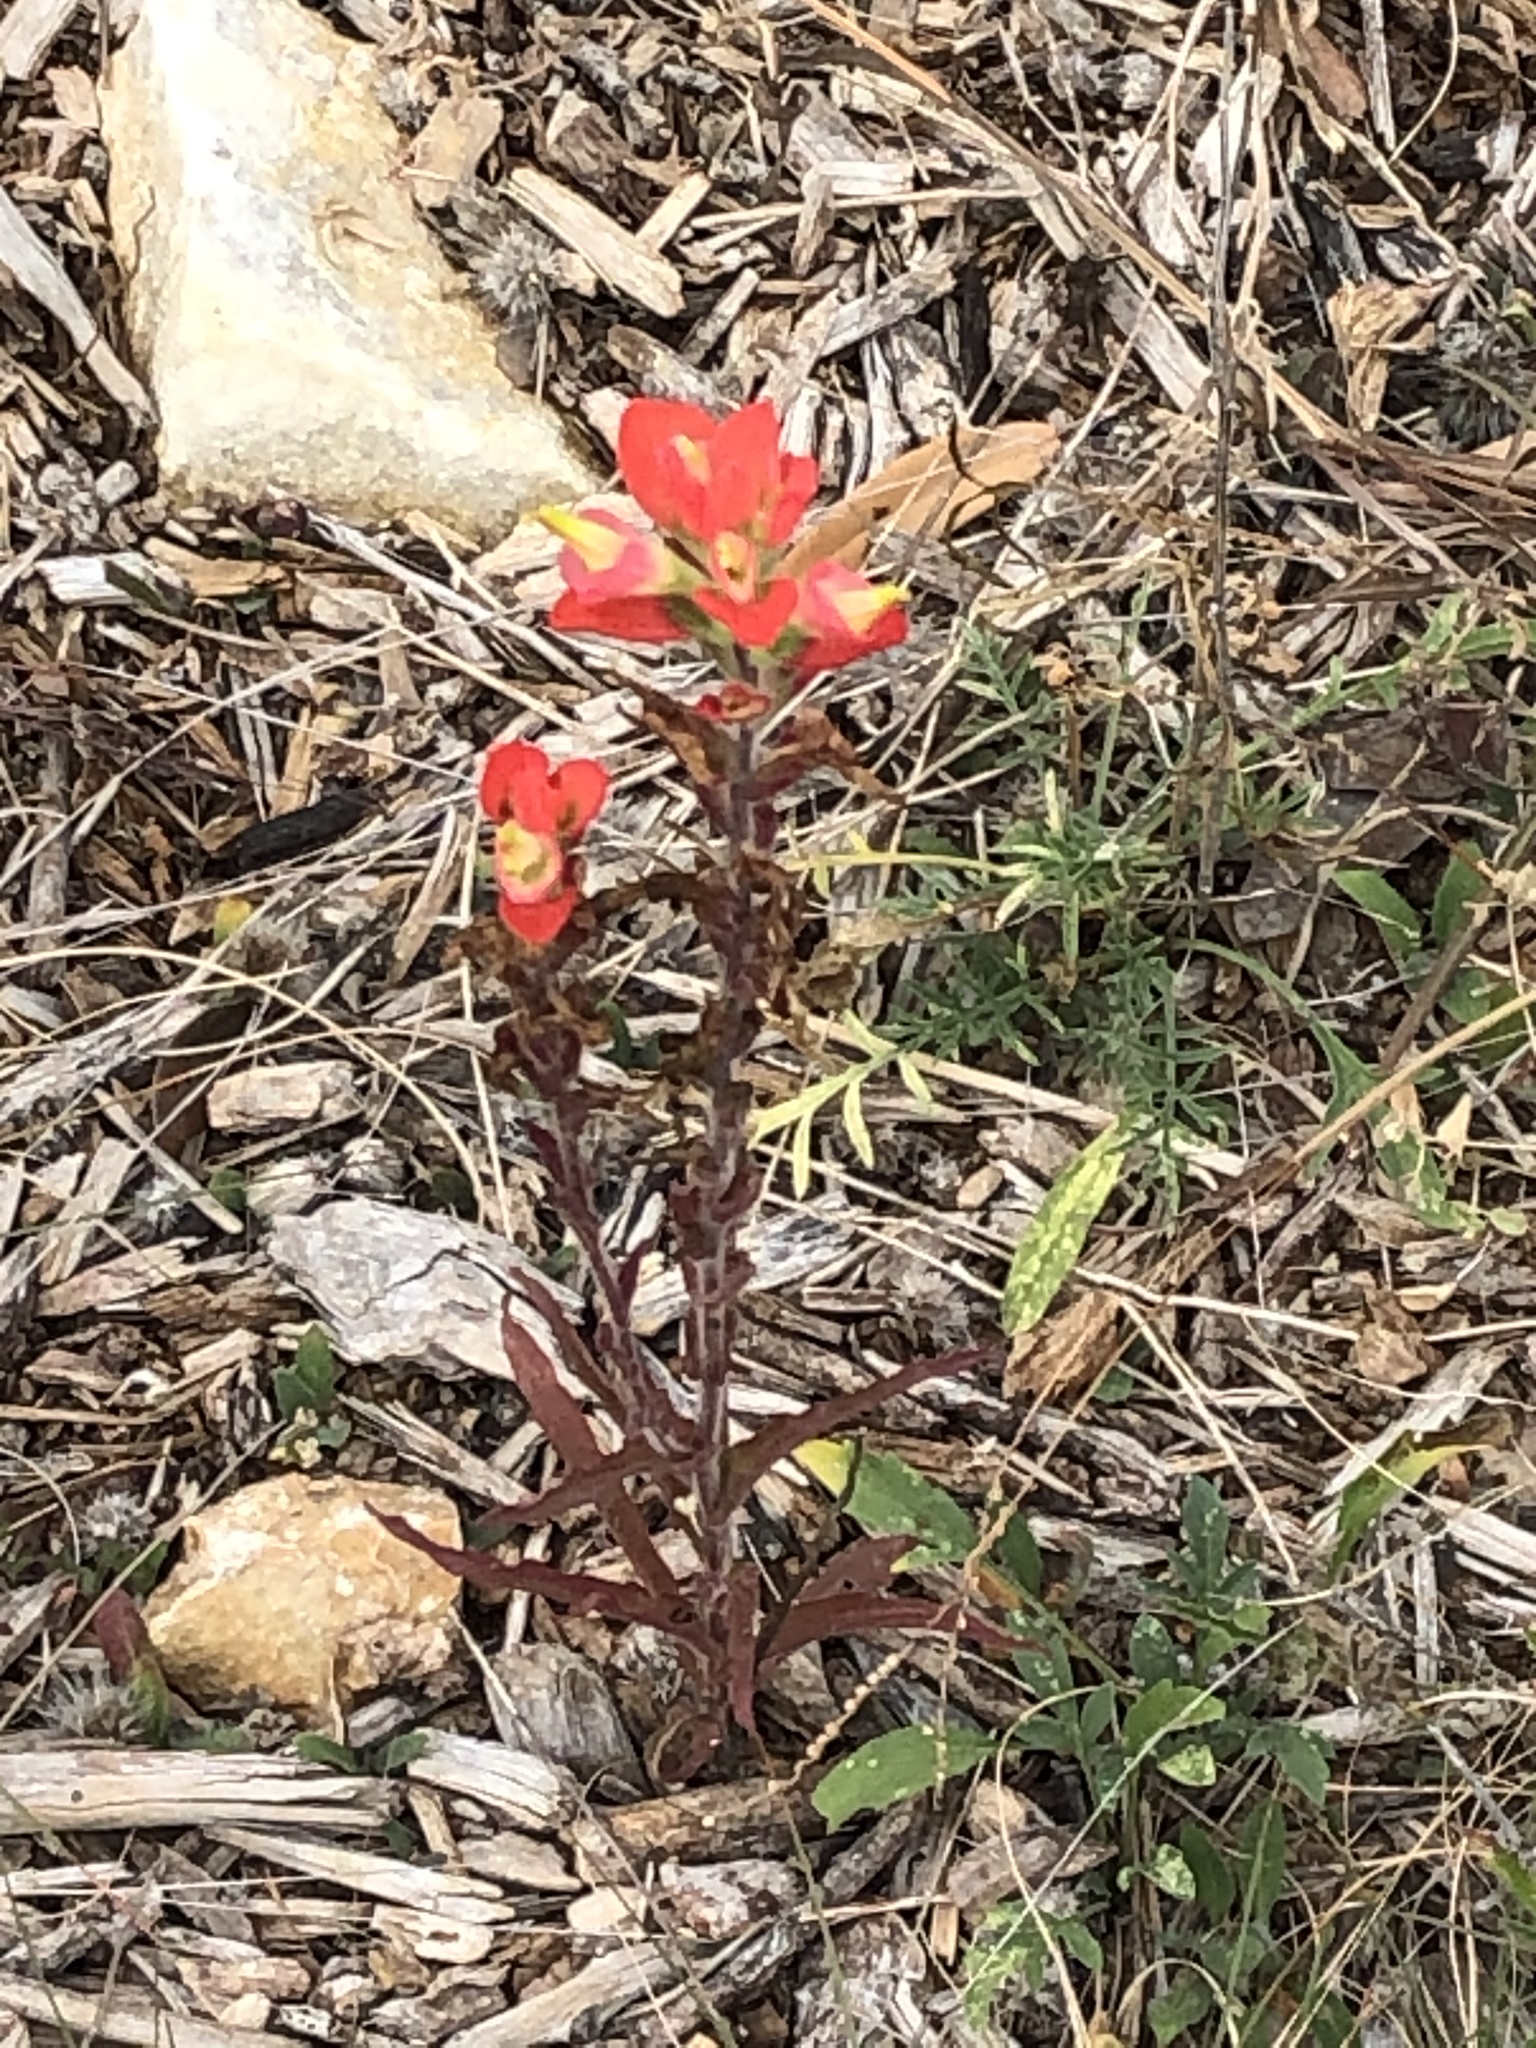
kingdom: Plantae
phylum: Tracheophyta
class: Magnoliopsida
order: Lamiales
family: Orobanchaceae
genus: Castilleja
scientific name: Castilleja indivisa
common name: Texas paintbrush
